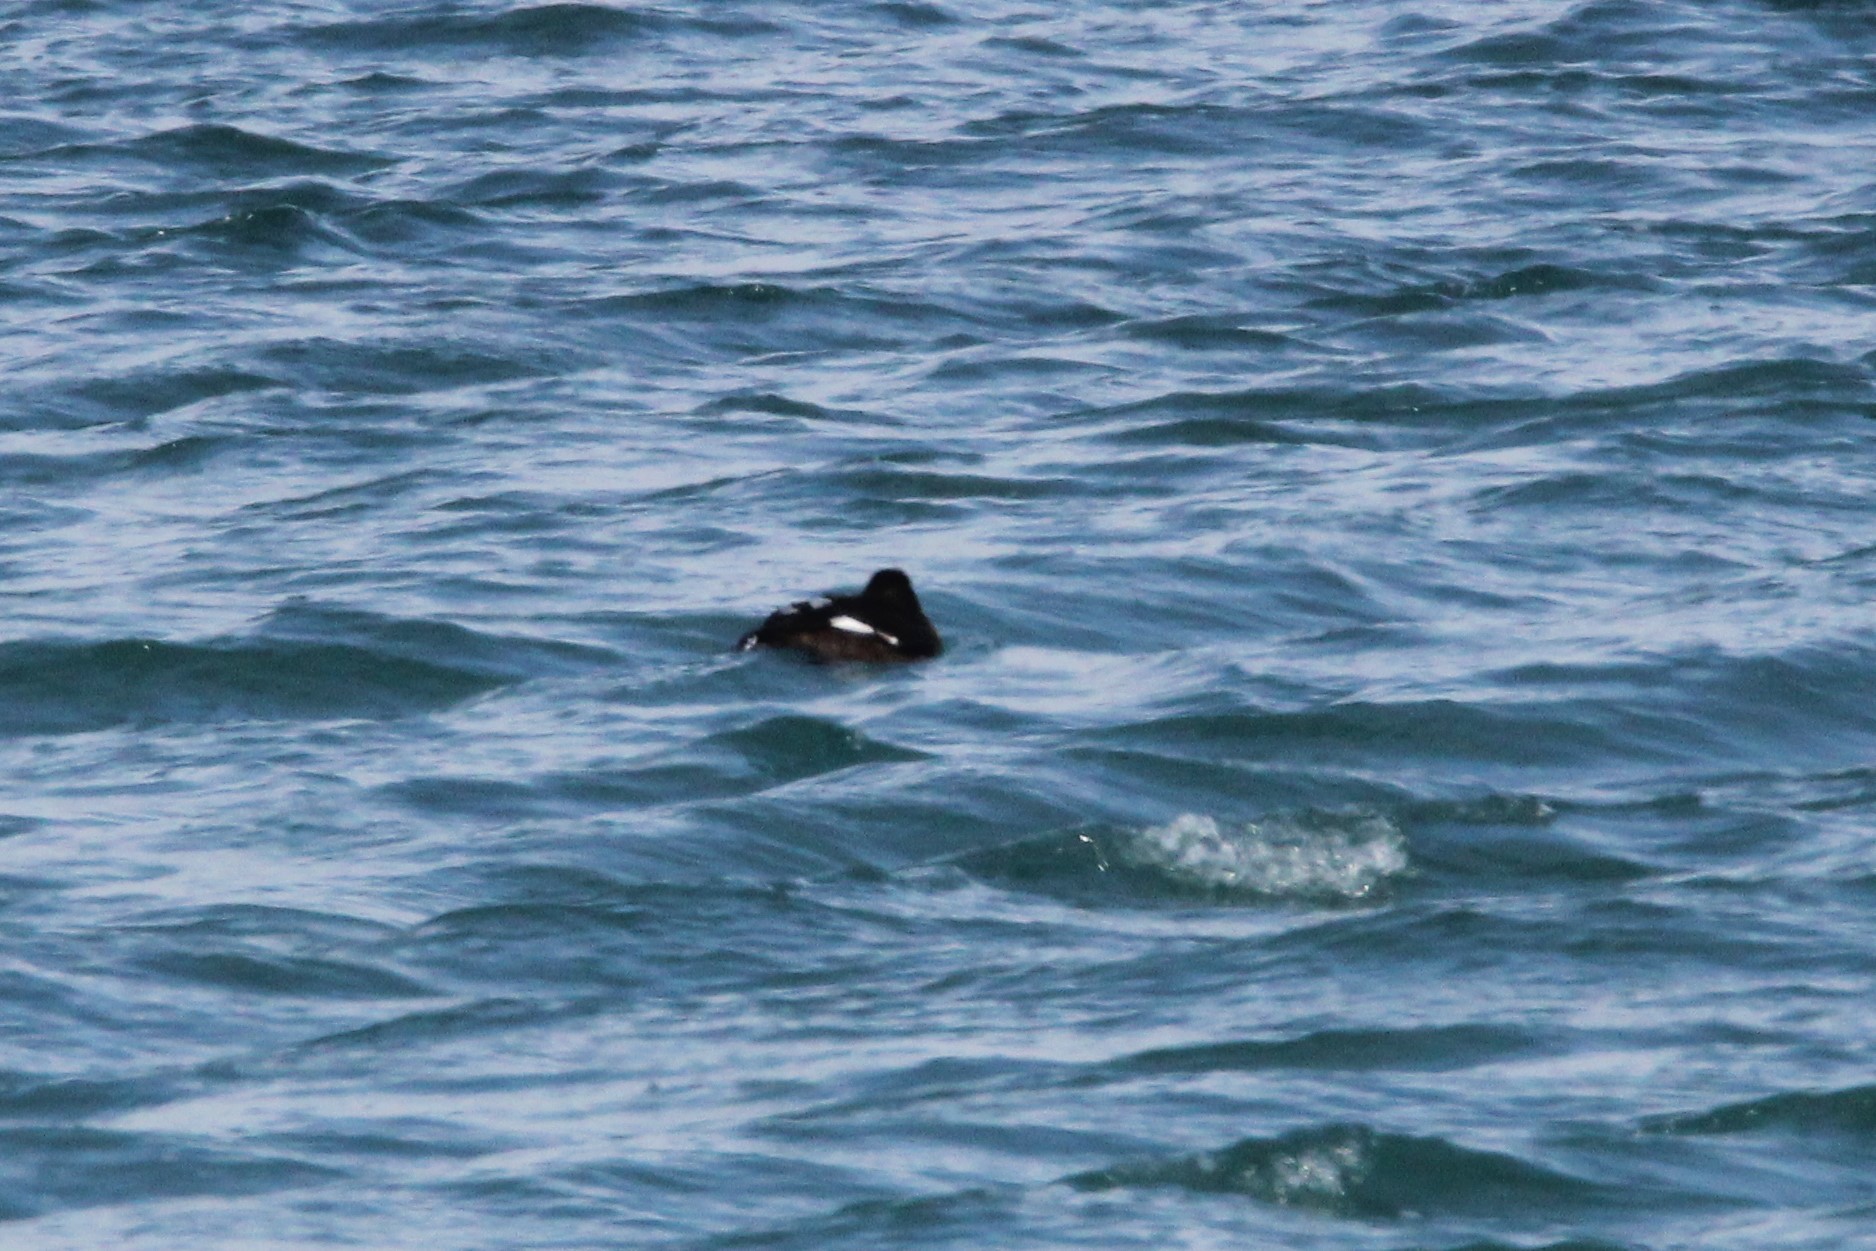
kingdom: Animalia
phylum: Chordata
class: Aves
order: Anseriformes
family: Anatidae
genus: Melanitta
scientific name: Melanitta deglandi
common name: White-winged scoter
